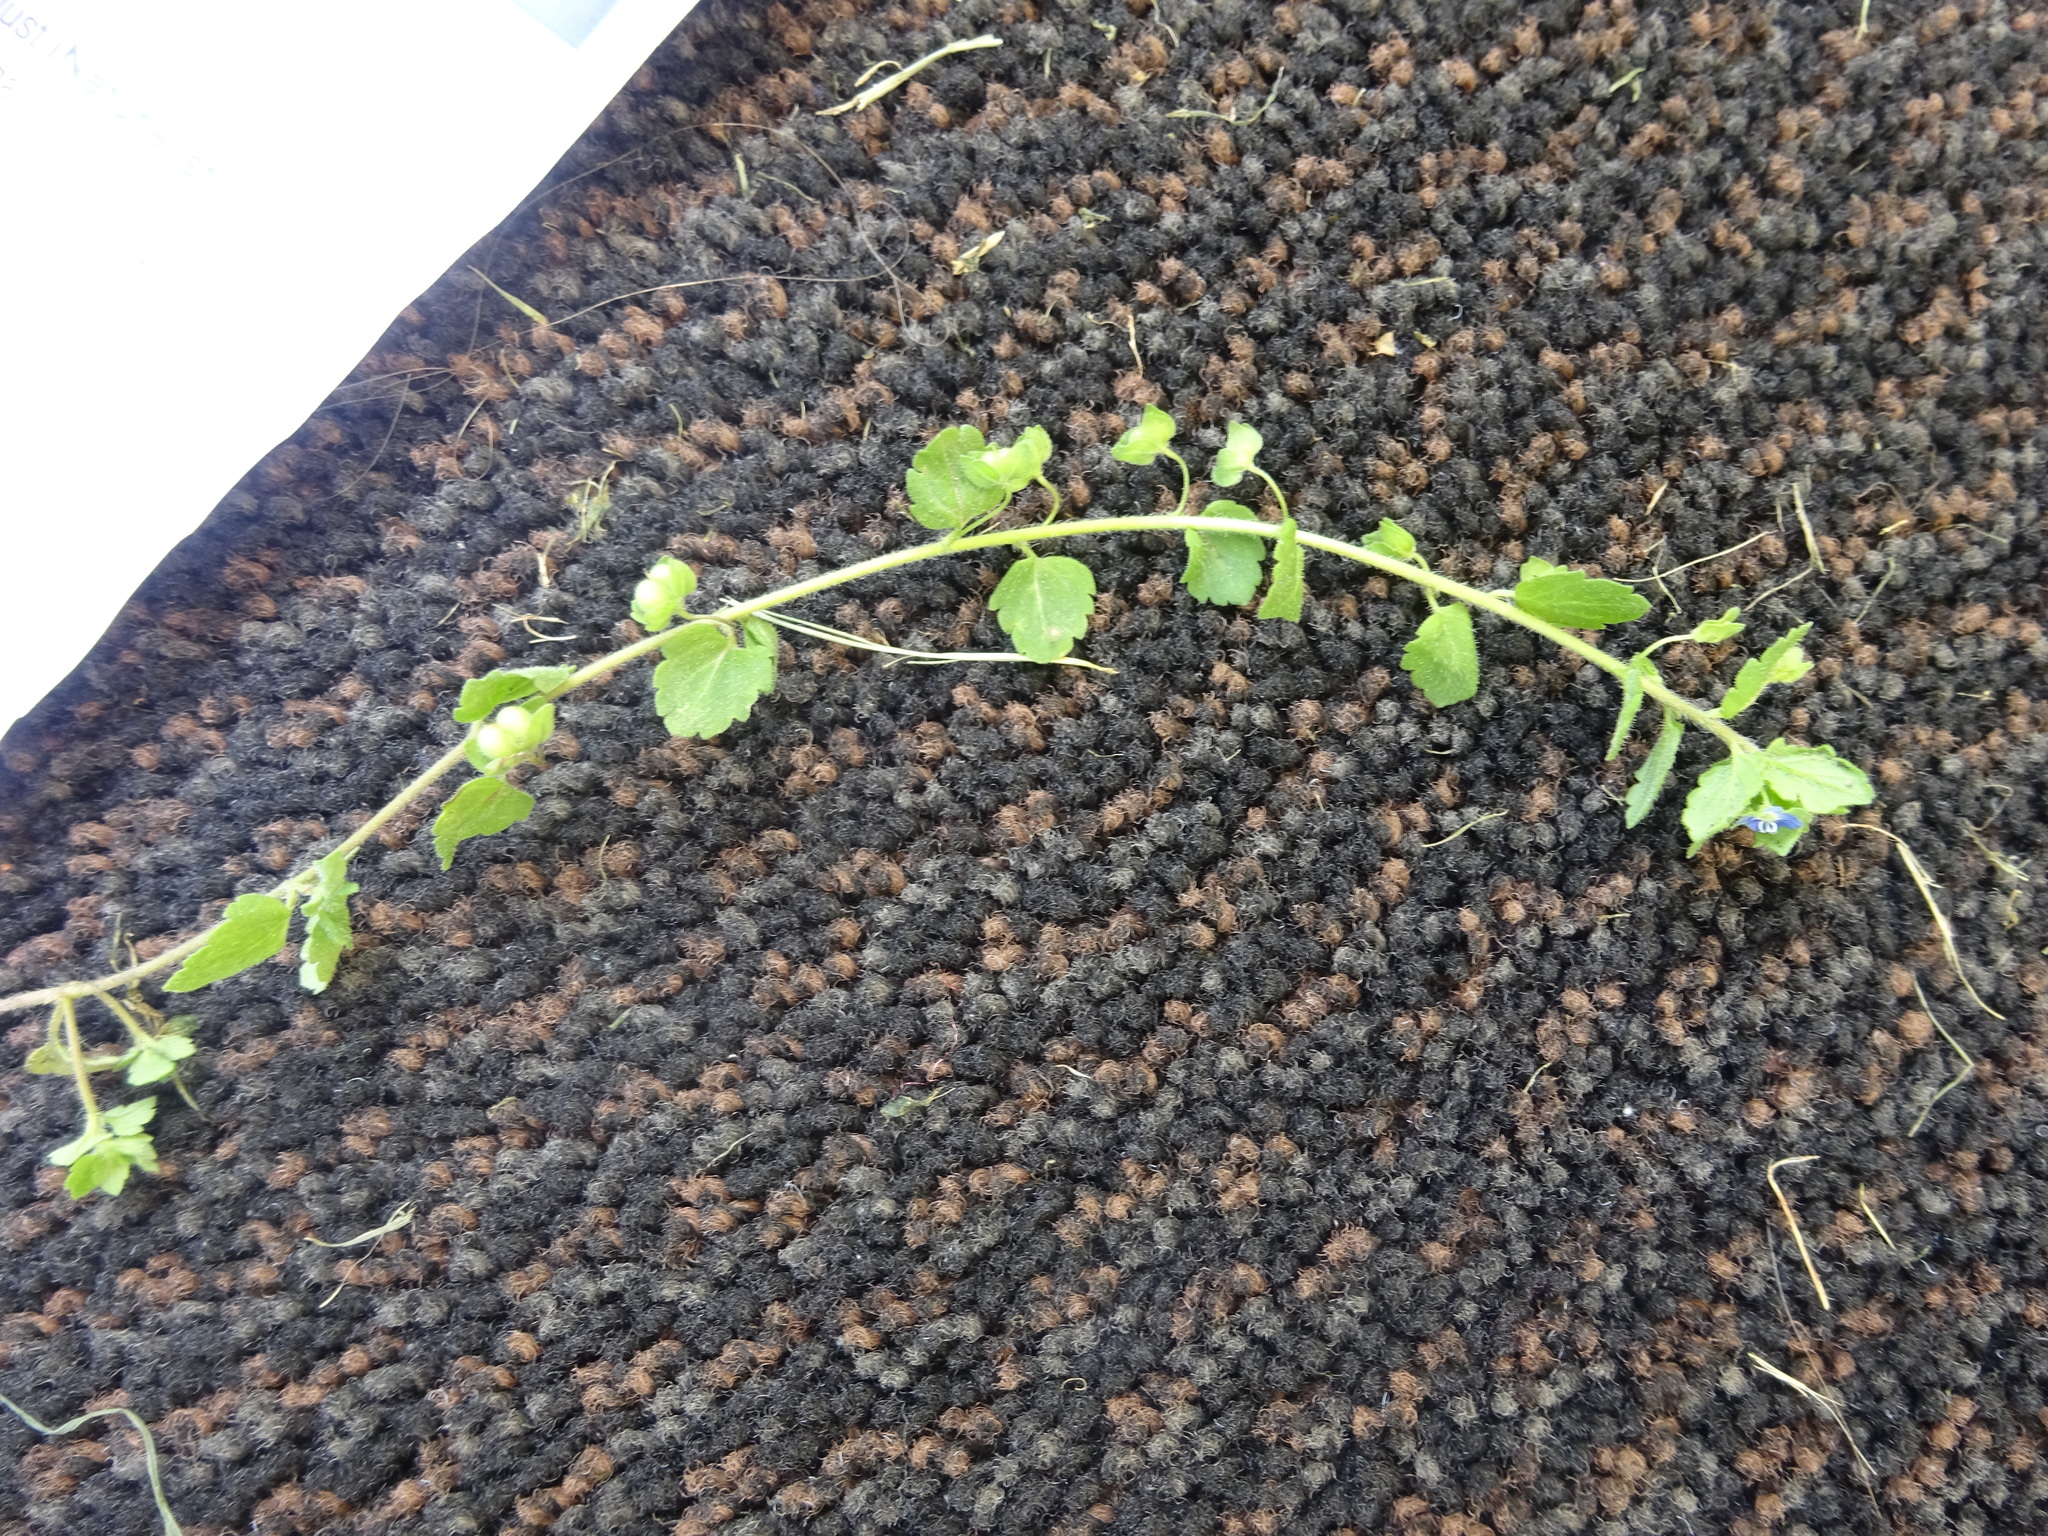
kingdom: Plantae
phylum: Tracheophyta
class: Magnoliopsida
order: Lamiales
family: Plantaginaceae
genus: Veronica
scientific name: Veronica polita
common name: Grey field-speedwell
